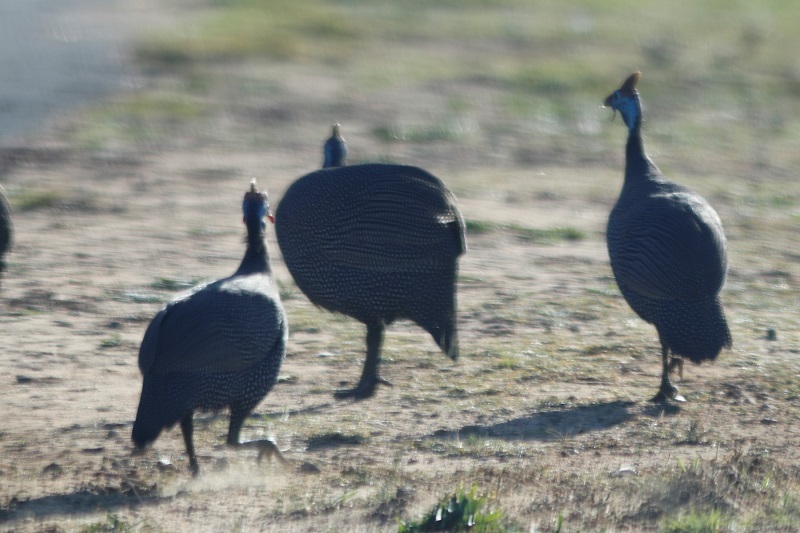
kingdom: Animalia
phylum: Chordata
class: Aves
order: Galliformes
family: Numididae
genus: Numida
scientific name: Numida meleagris
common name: Helmeted guineafowl
